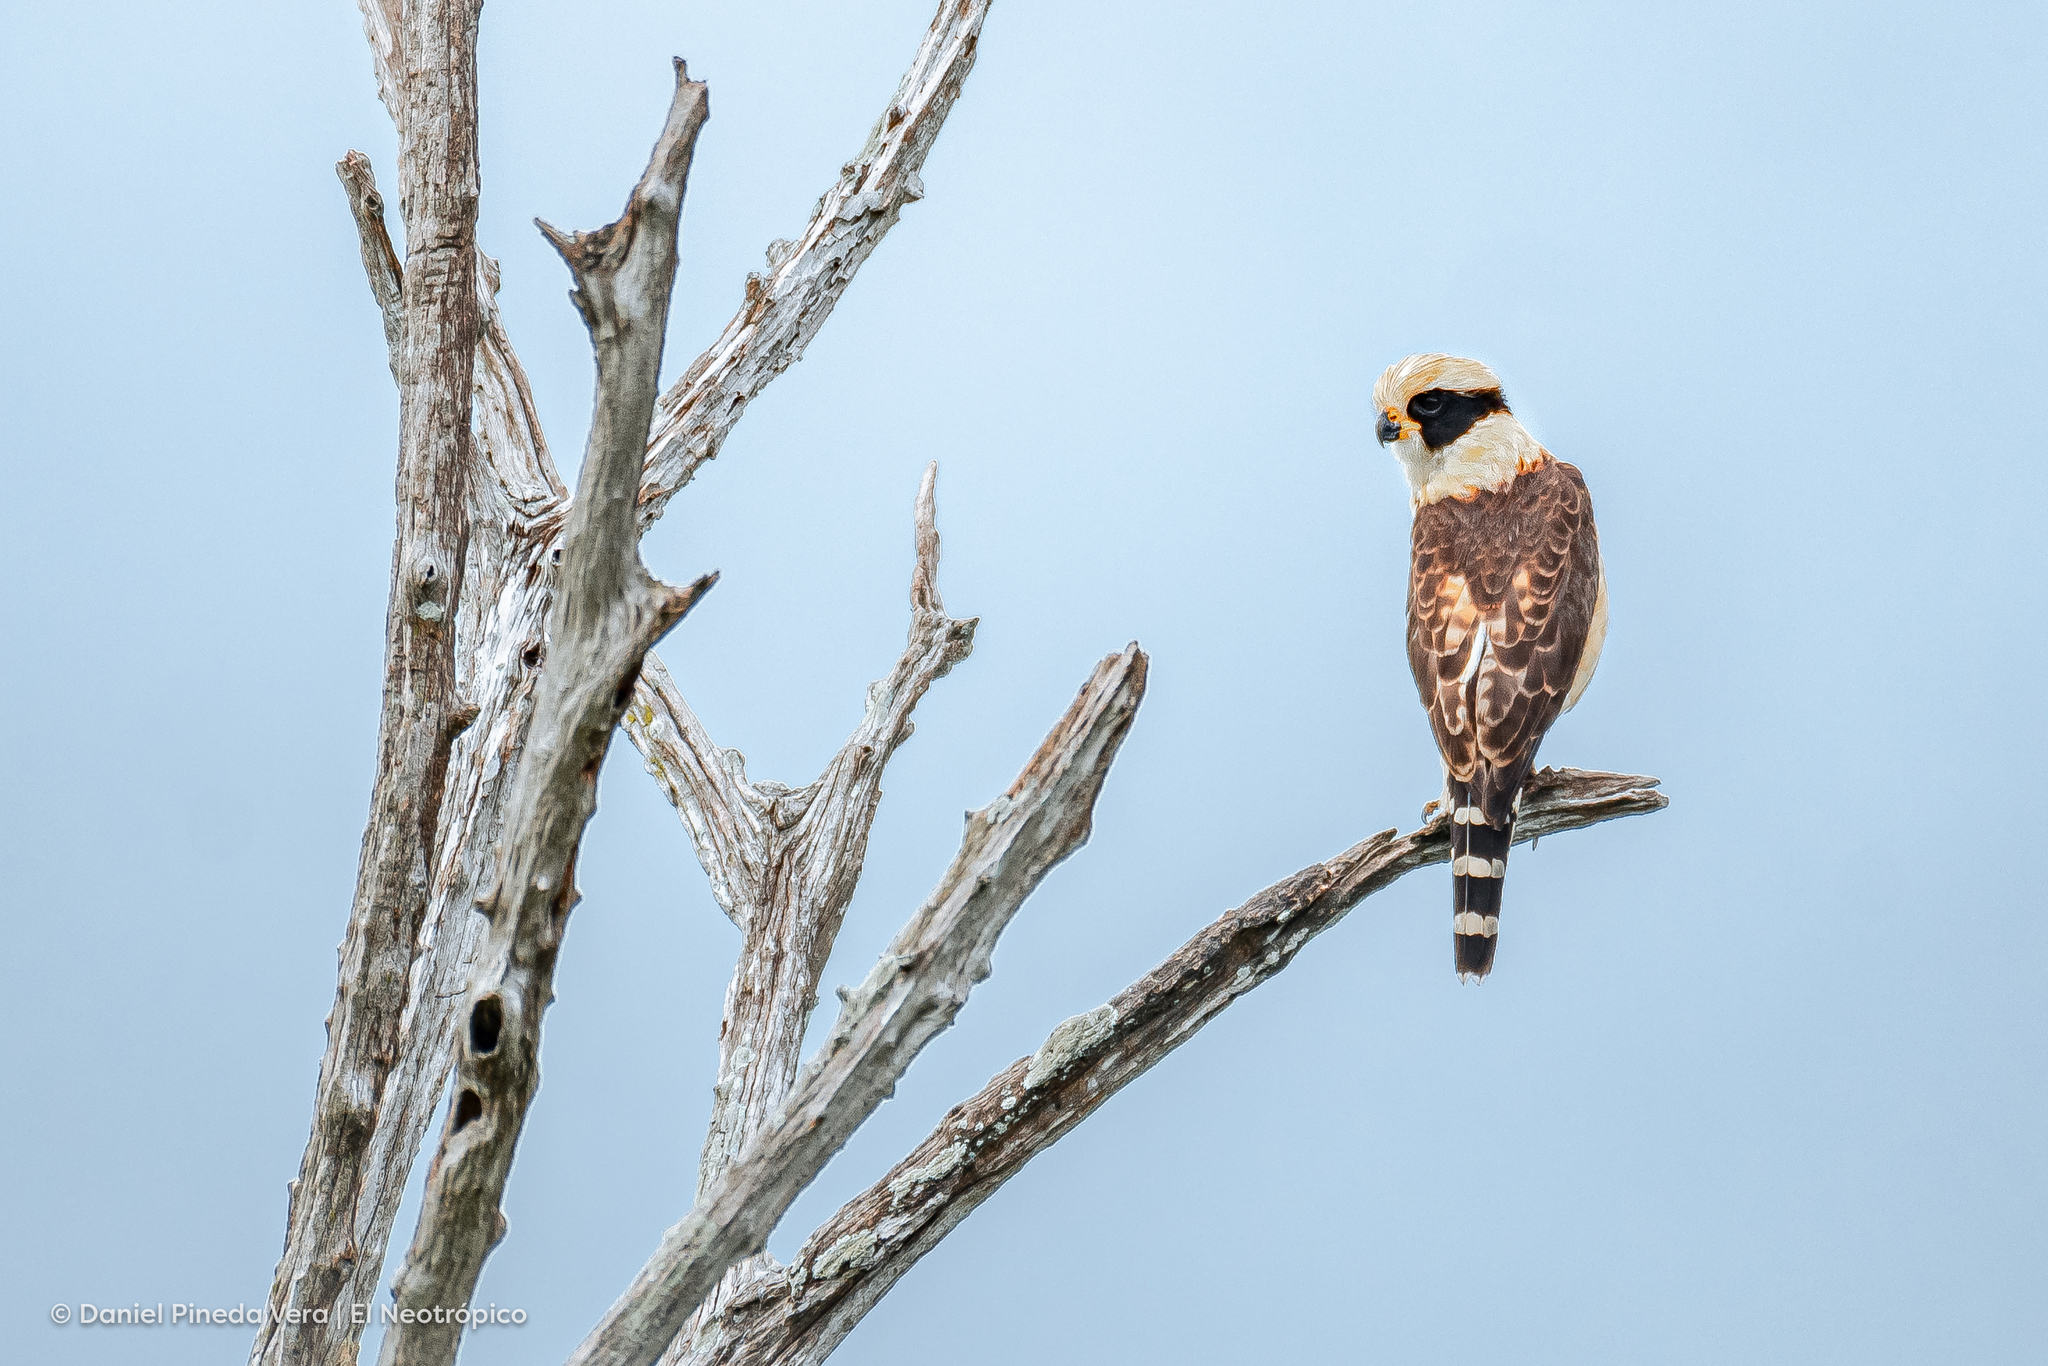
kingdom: Animalia
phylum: Chordata
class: Aves
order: Falconiformes
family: Falconidae
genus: Herpetotheres
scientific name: Herpetotheres cachinnans
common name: Laughing falcon
